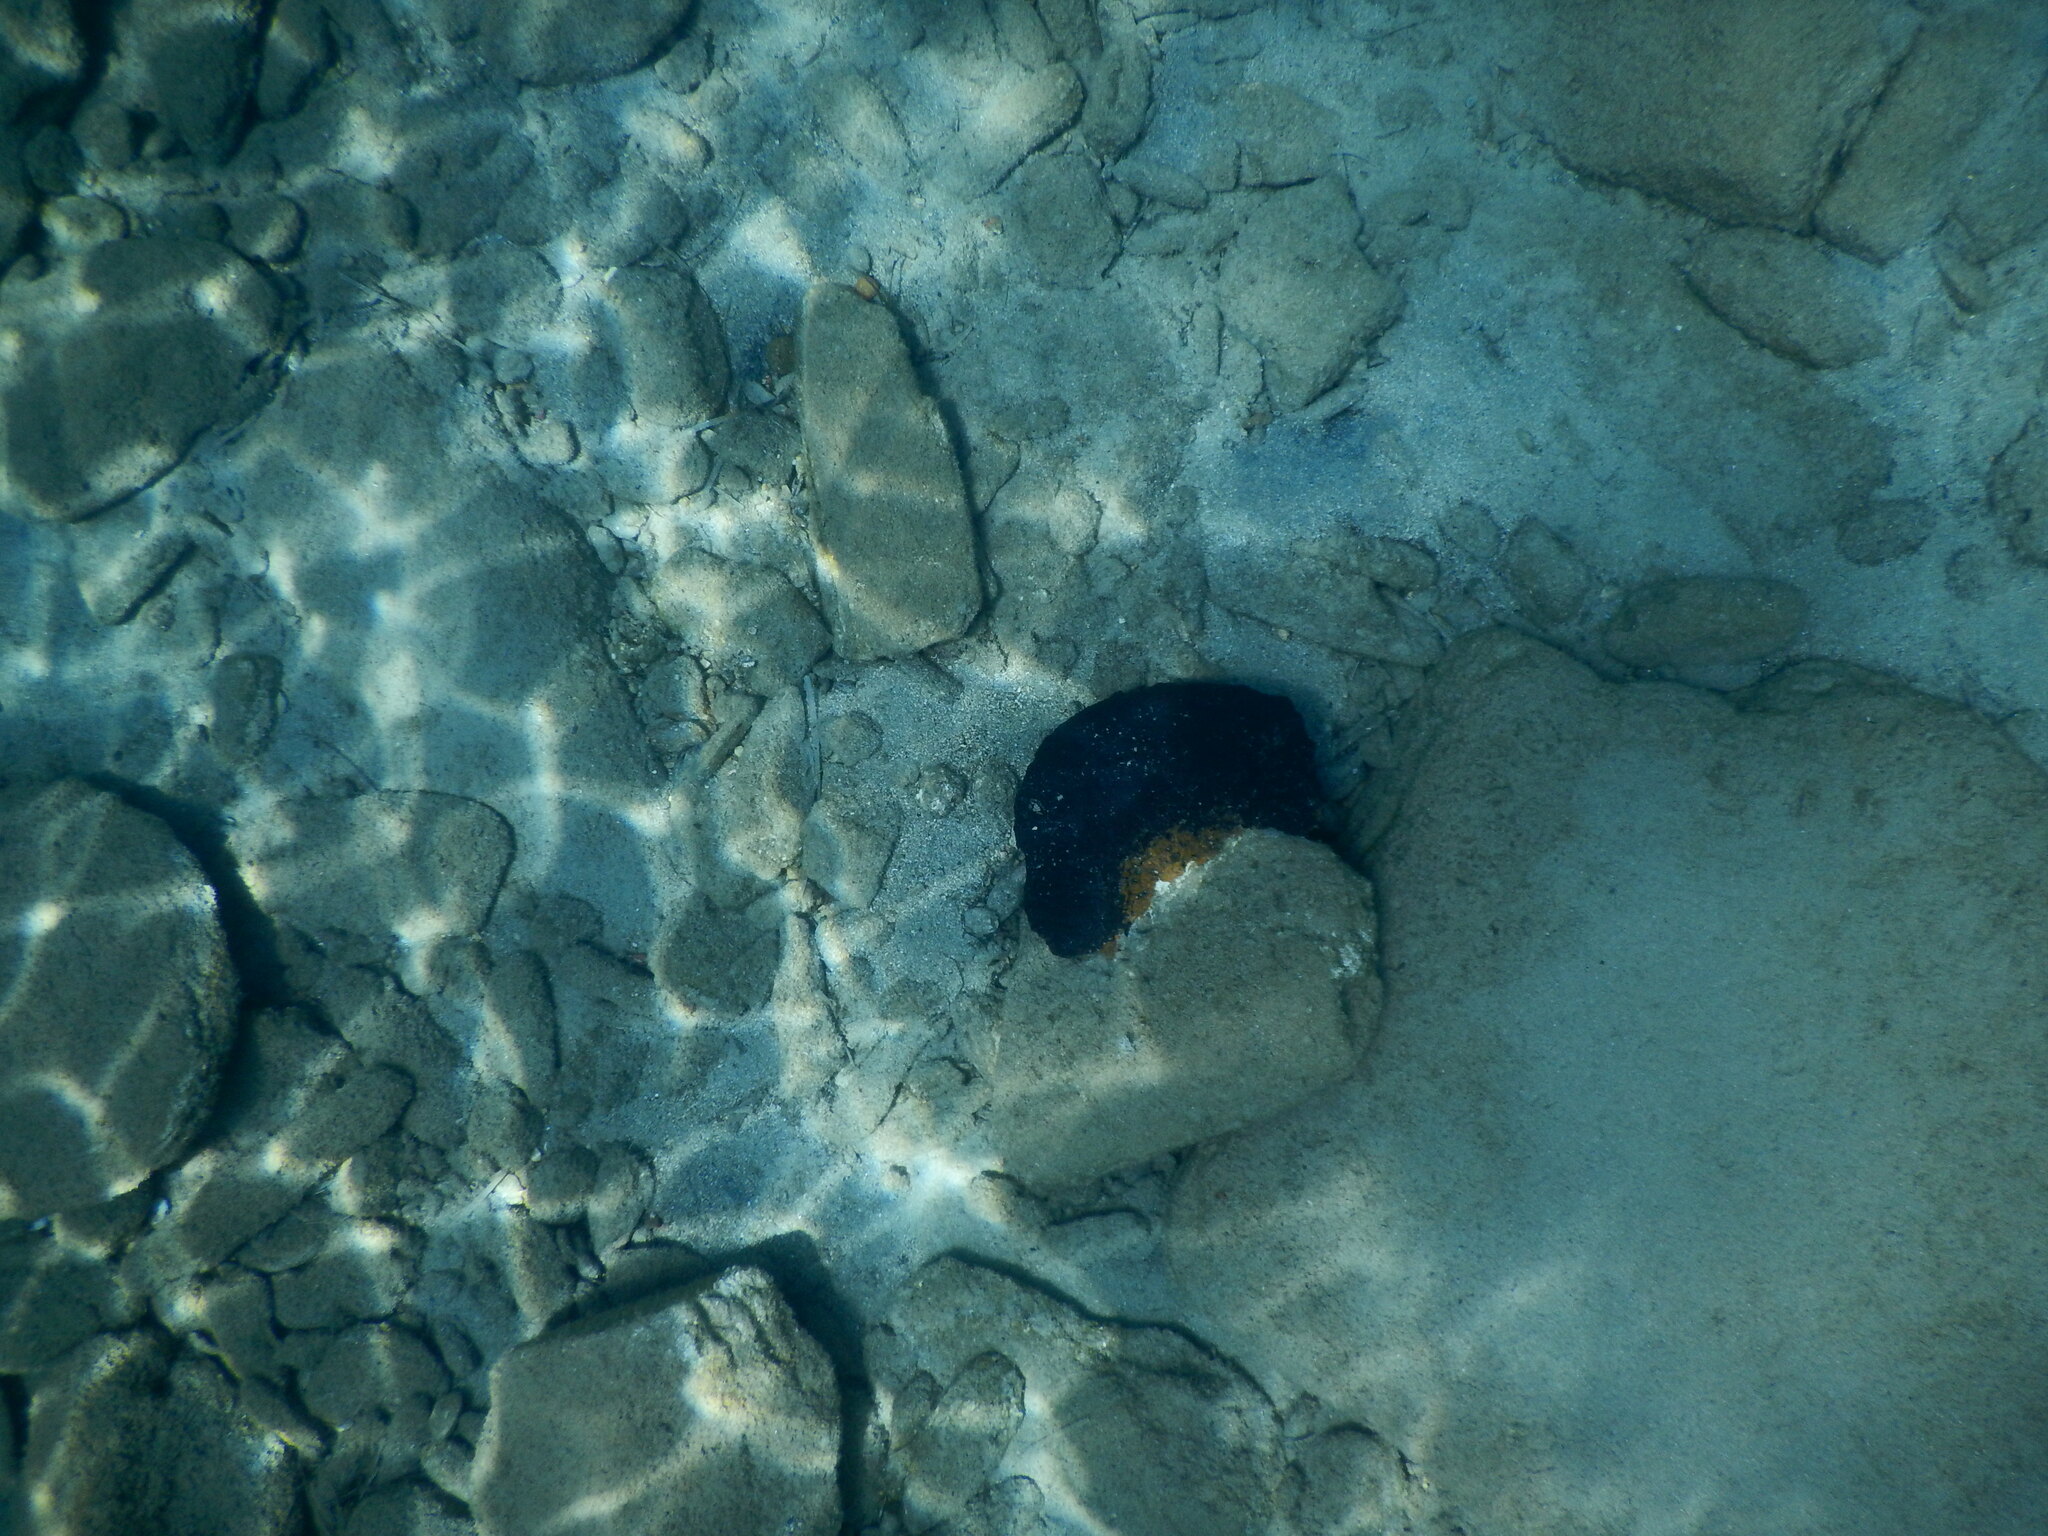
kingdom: Animalia
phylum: Porifera
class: Demospongiae
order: Dictyoceratida
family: Irciniidae
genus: Sarcotragus
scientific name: Sarcotragus spinosulus
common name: Black leather sponge
